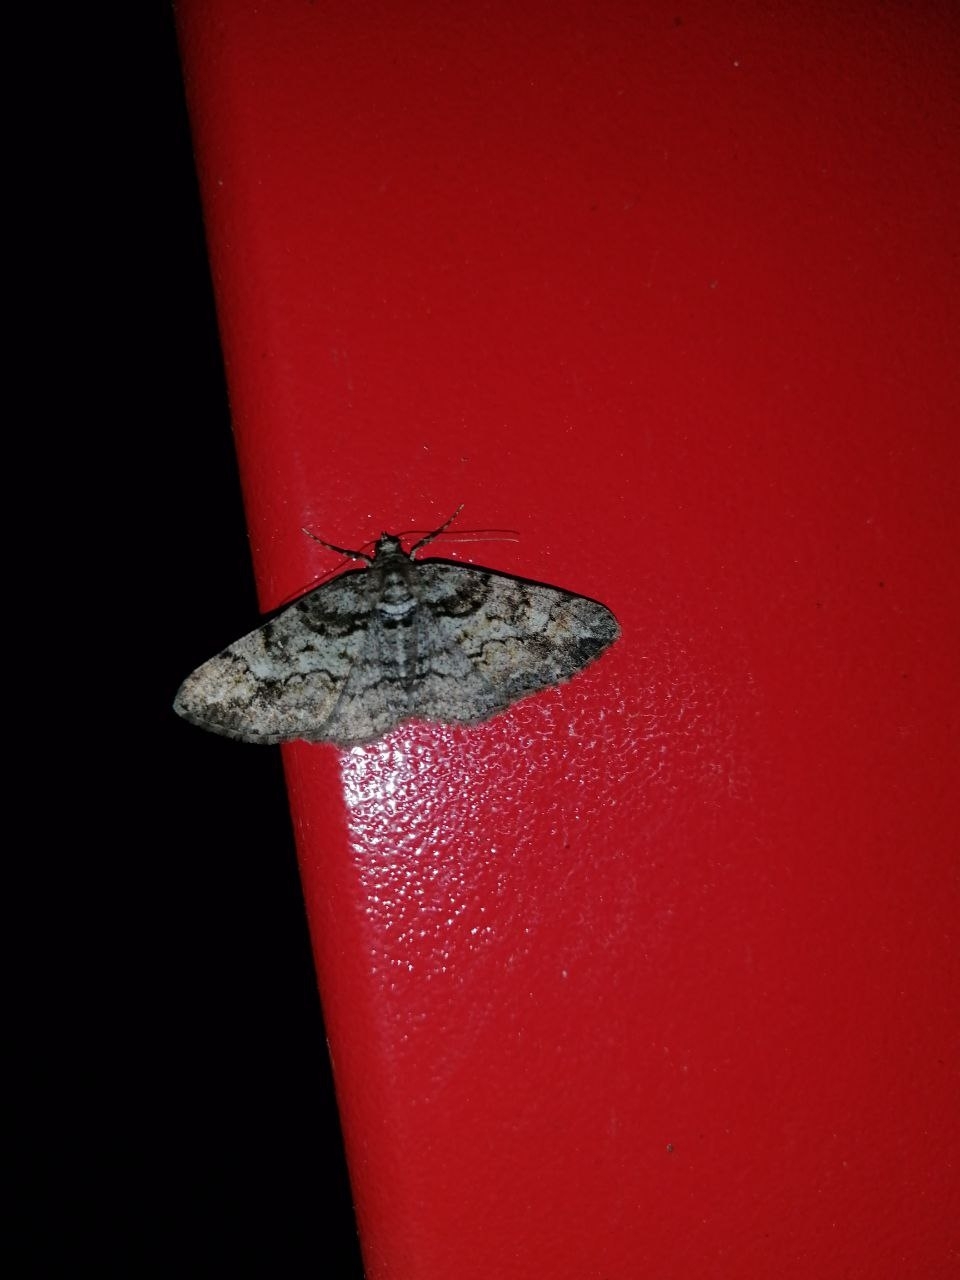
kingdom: Animalia
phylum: Arthropoda
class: Insecta
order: Lepidoptera
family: Geometridae
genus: Cleora
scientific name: Cleora cinctaria
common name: Ringed carpet
